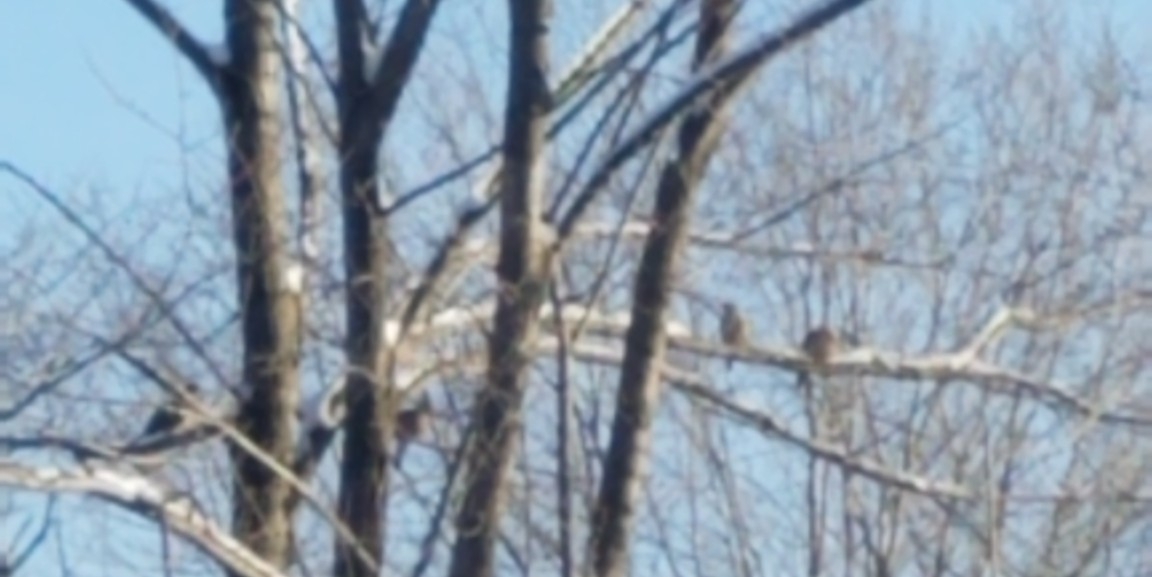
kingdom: Animalia
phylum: Chordata
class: Aves
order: Columbiformes
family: Columbidae
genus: Zenaida
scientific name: Zenaida macroura
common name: Mourning dove
